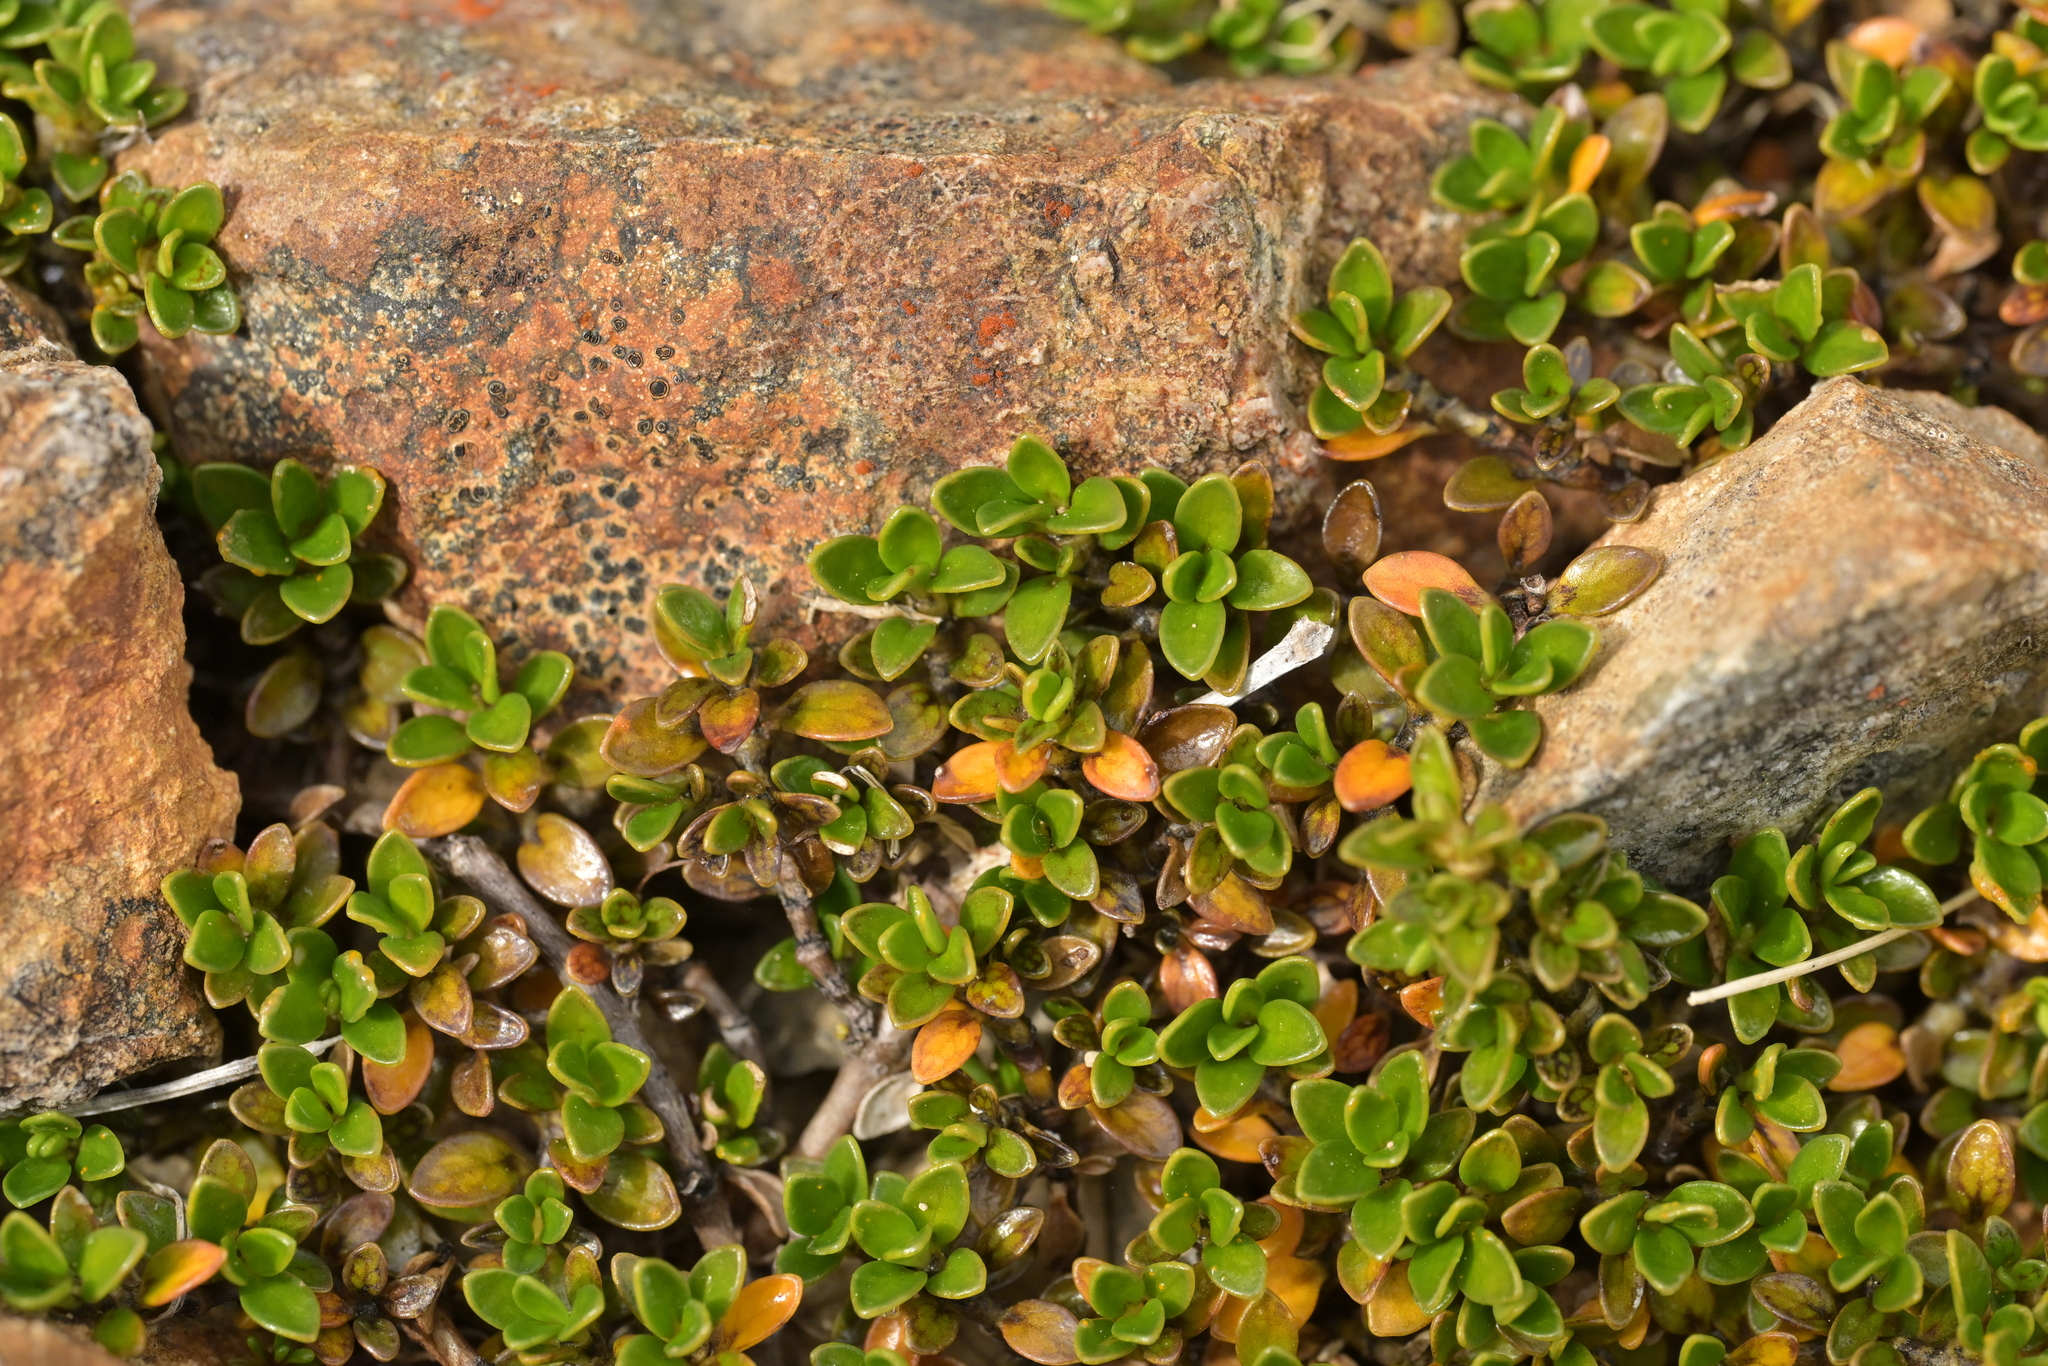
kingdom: Plantae
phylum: Tracheophyta
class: Magnoliopsida
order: Gentianales
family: Rubiaceae
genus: Coprosma
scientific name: Coprosma perpusilla
